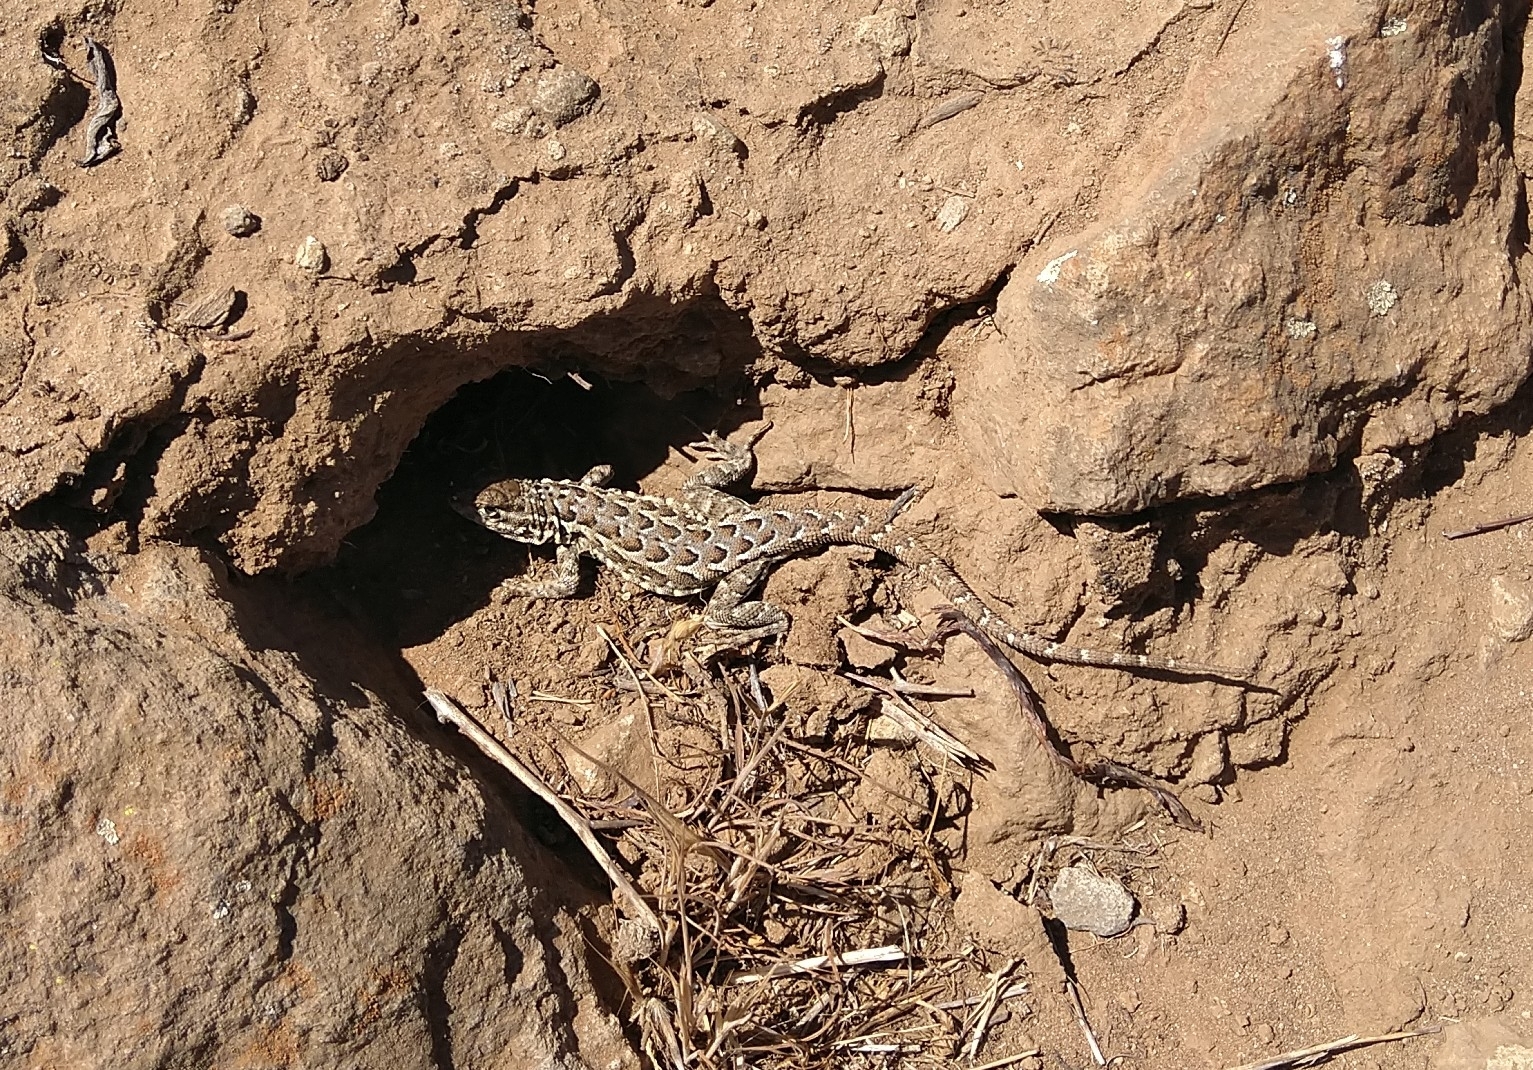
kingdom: Animalia
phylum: Chordata
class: Squamata
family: Phrynosomatidae
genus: Uta
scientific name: Uta stansburiana
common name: Side-blotched lizard
